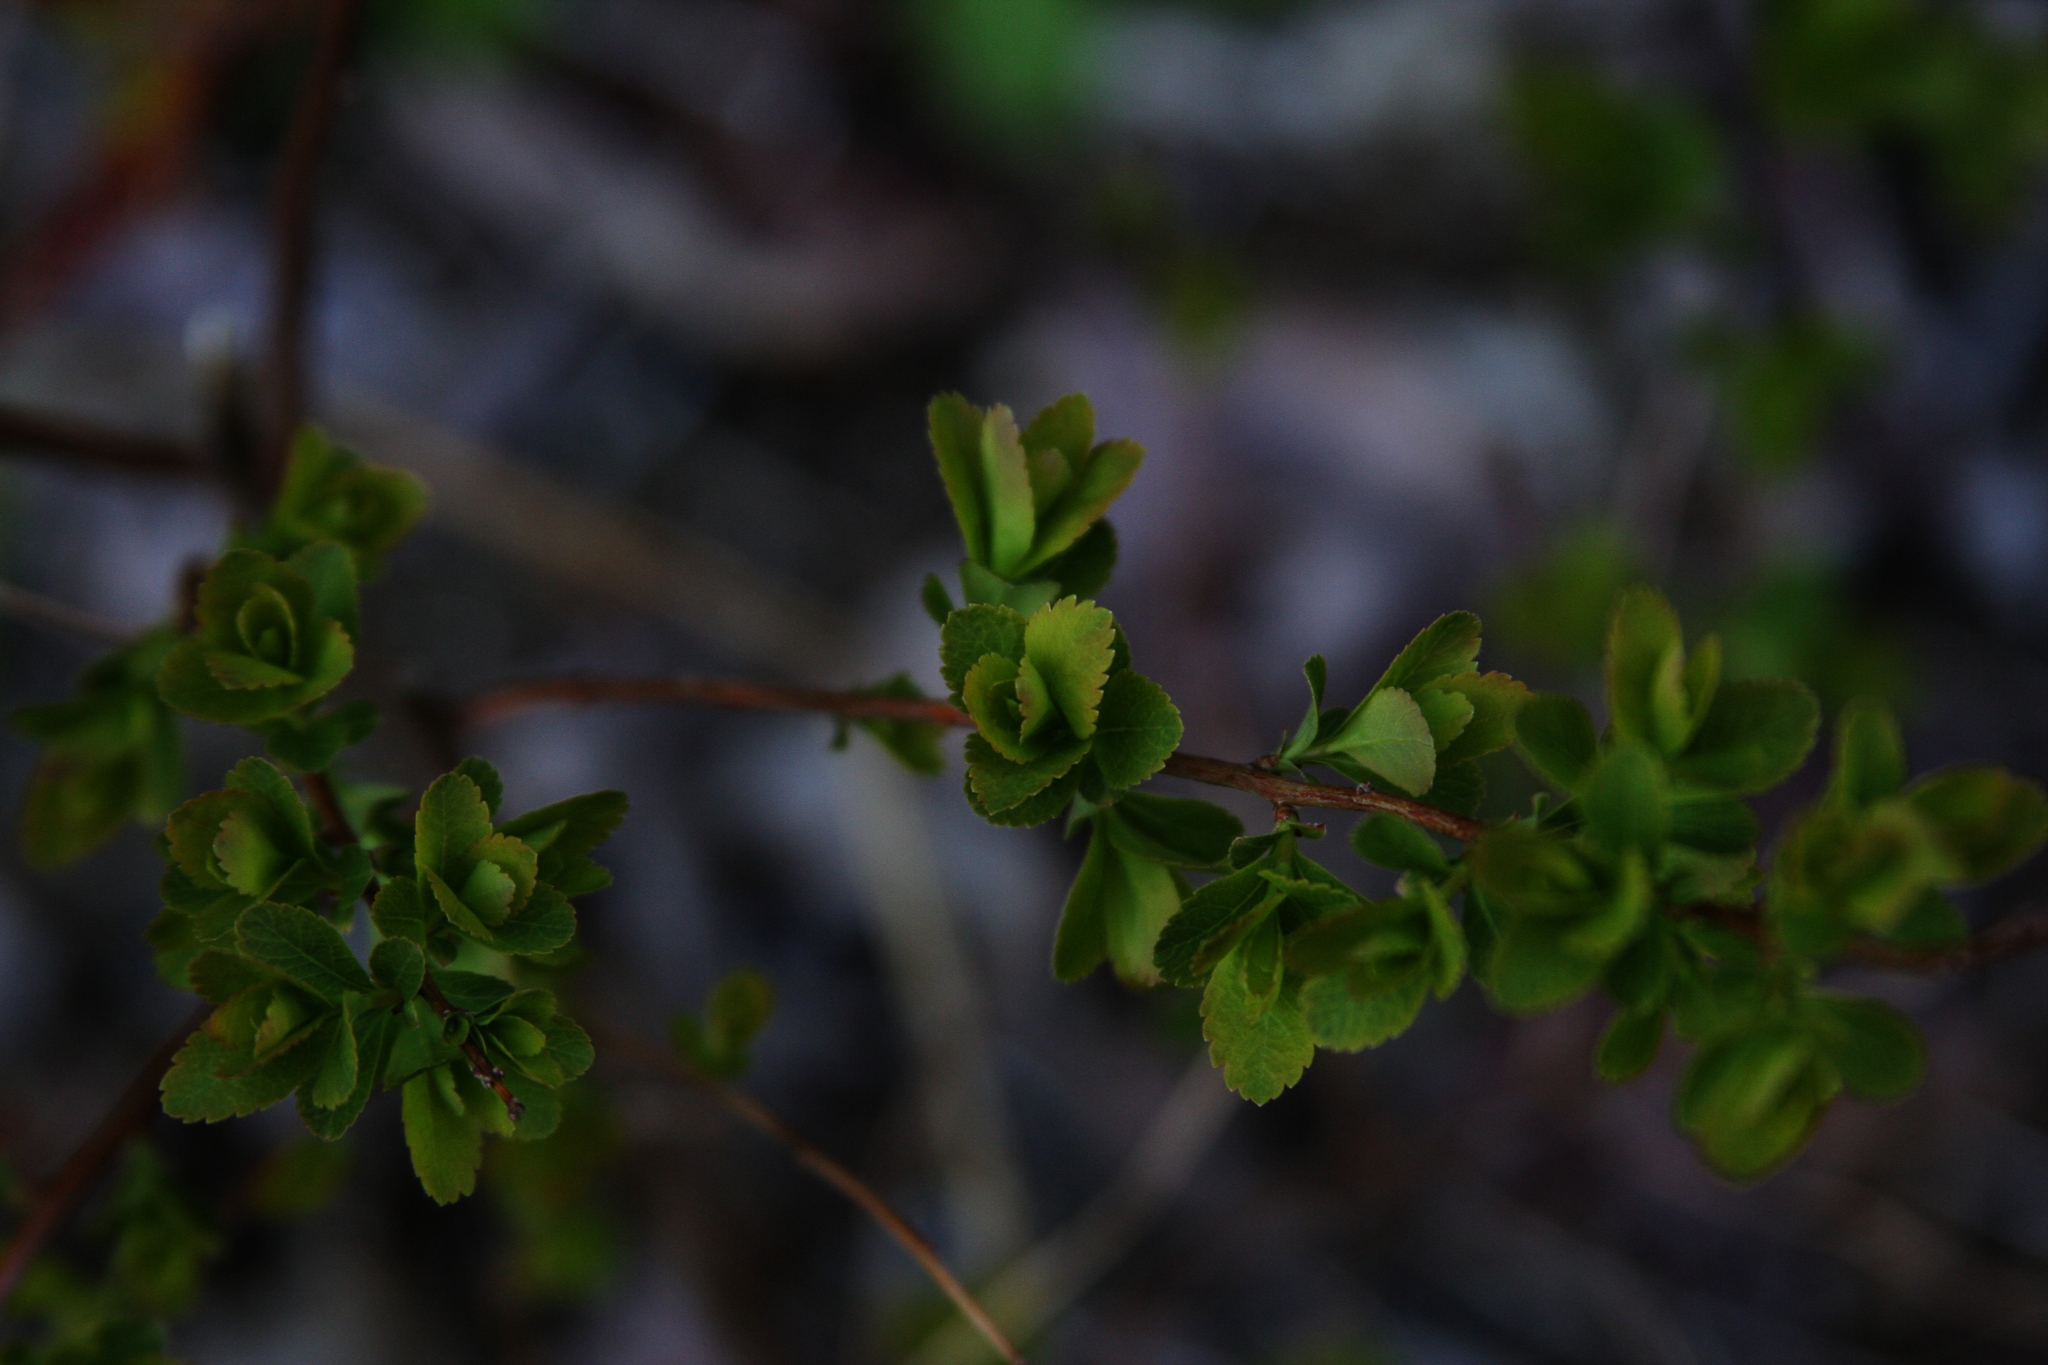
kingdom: Plantae
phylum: Tracheophyta
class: Magnoliopsida
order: Rosales
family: Rosaceae
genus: Spiraea
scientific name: Spiraea alba
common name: Pale bridewort
